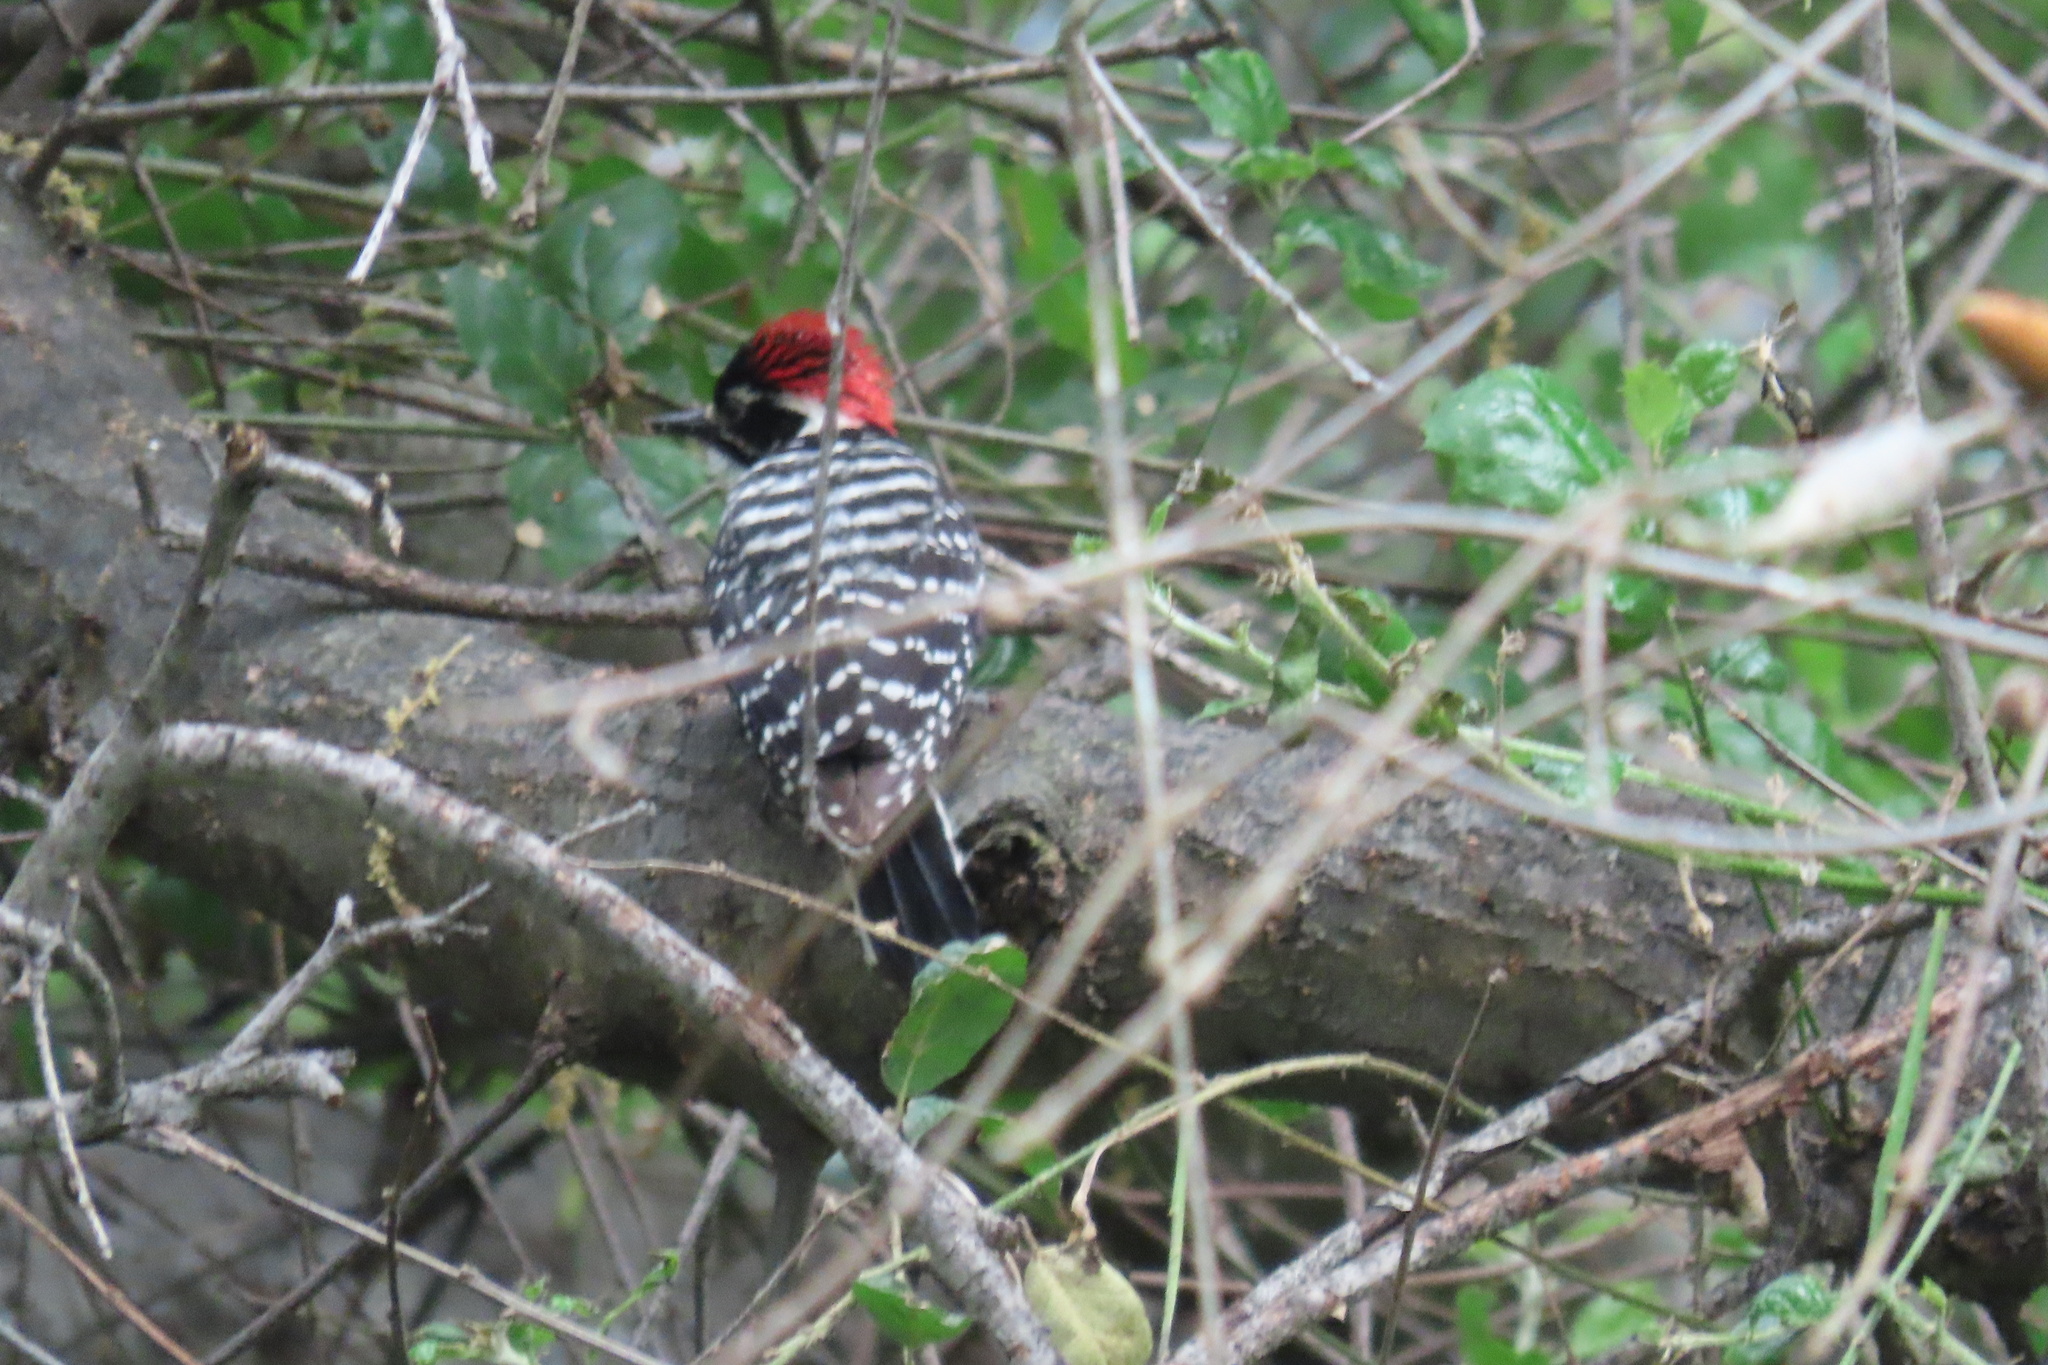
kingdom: Animalia
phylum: Chordata
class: Aves
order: Piciformes
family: Picidae
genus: Dryobates
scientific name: Dryobates nuttallii
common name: Nuttall's woodpecker
